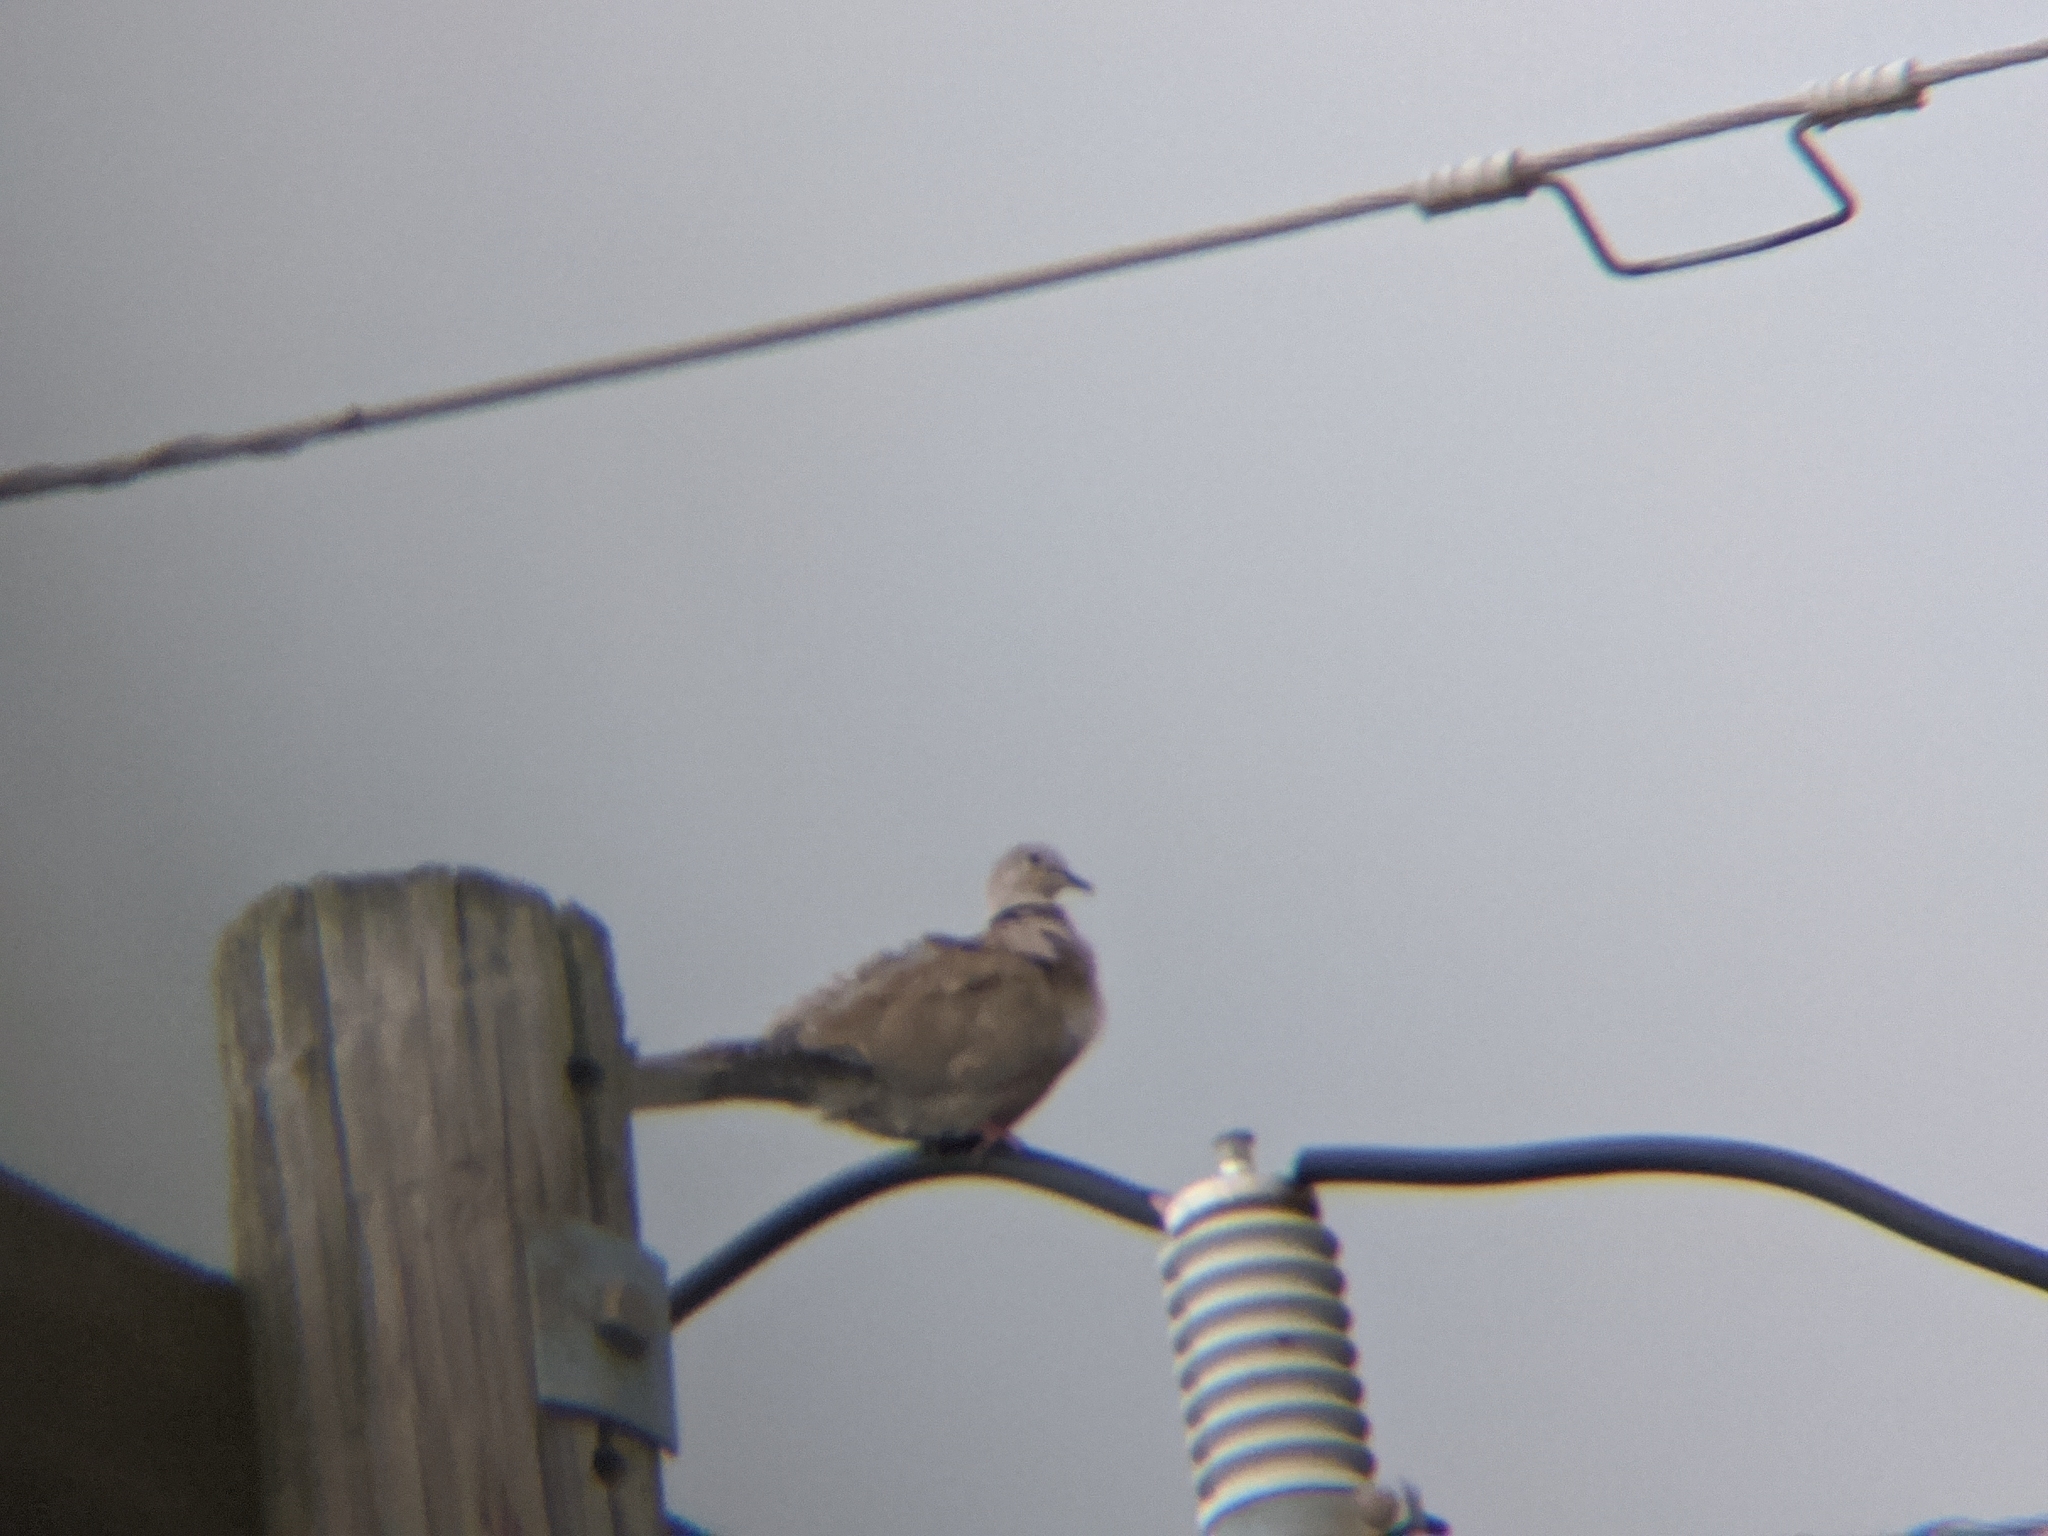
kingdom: Animalia
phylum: Chordata
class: Aves
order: Columbiformes
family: Columbidae
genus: Streptopelia
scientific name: Streptopelia decaocto
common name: Eurasian collared dove
